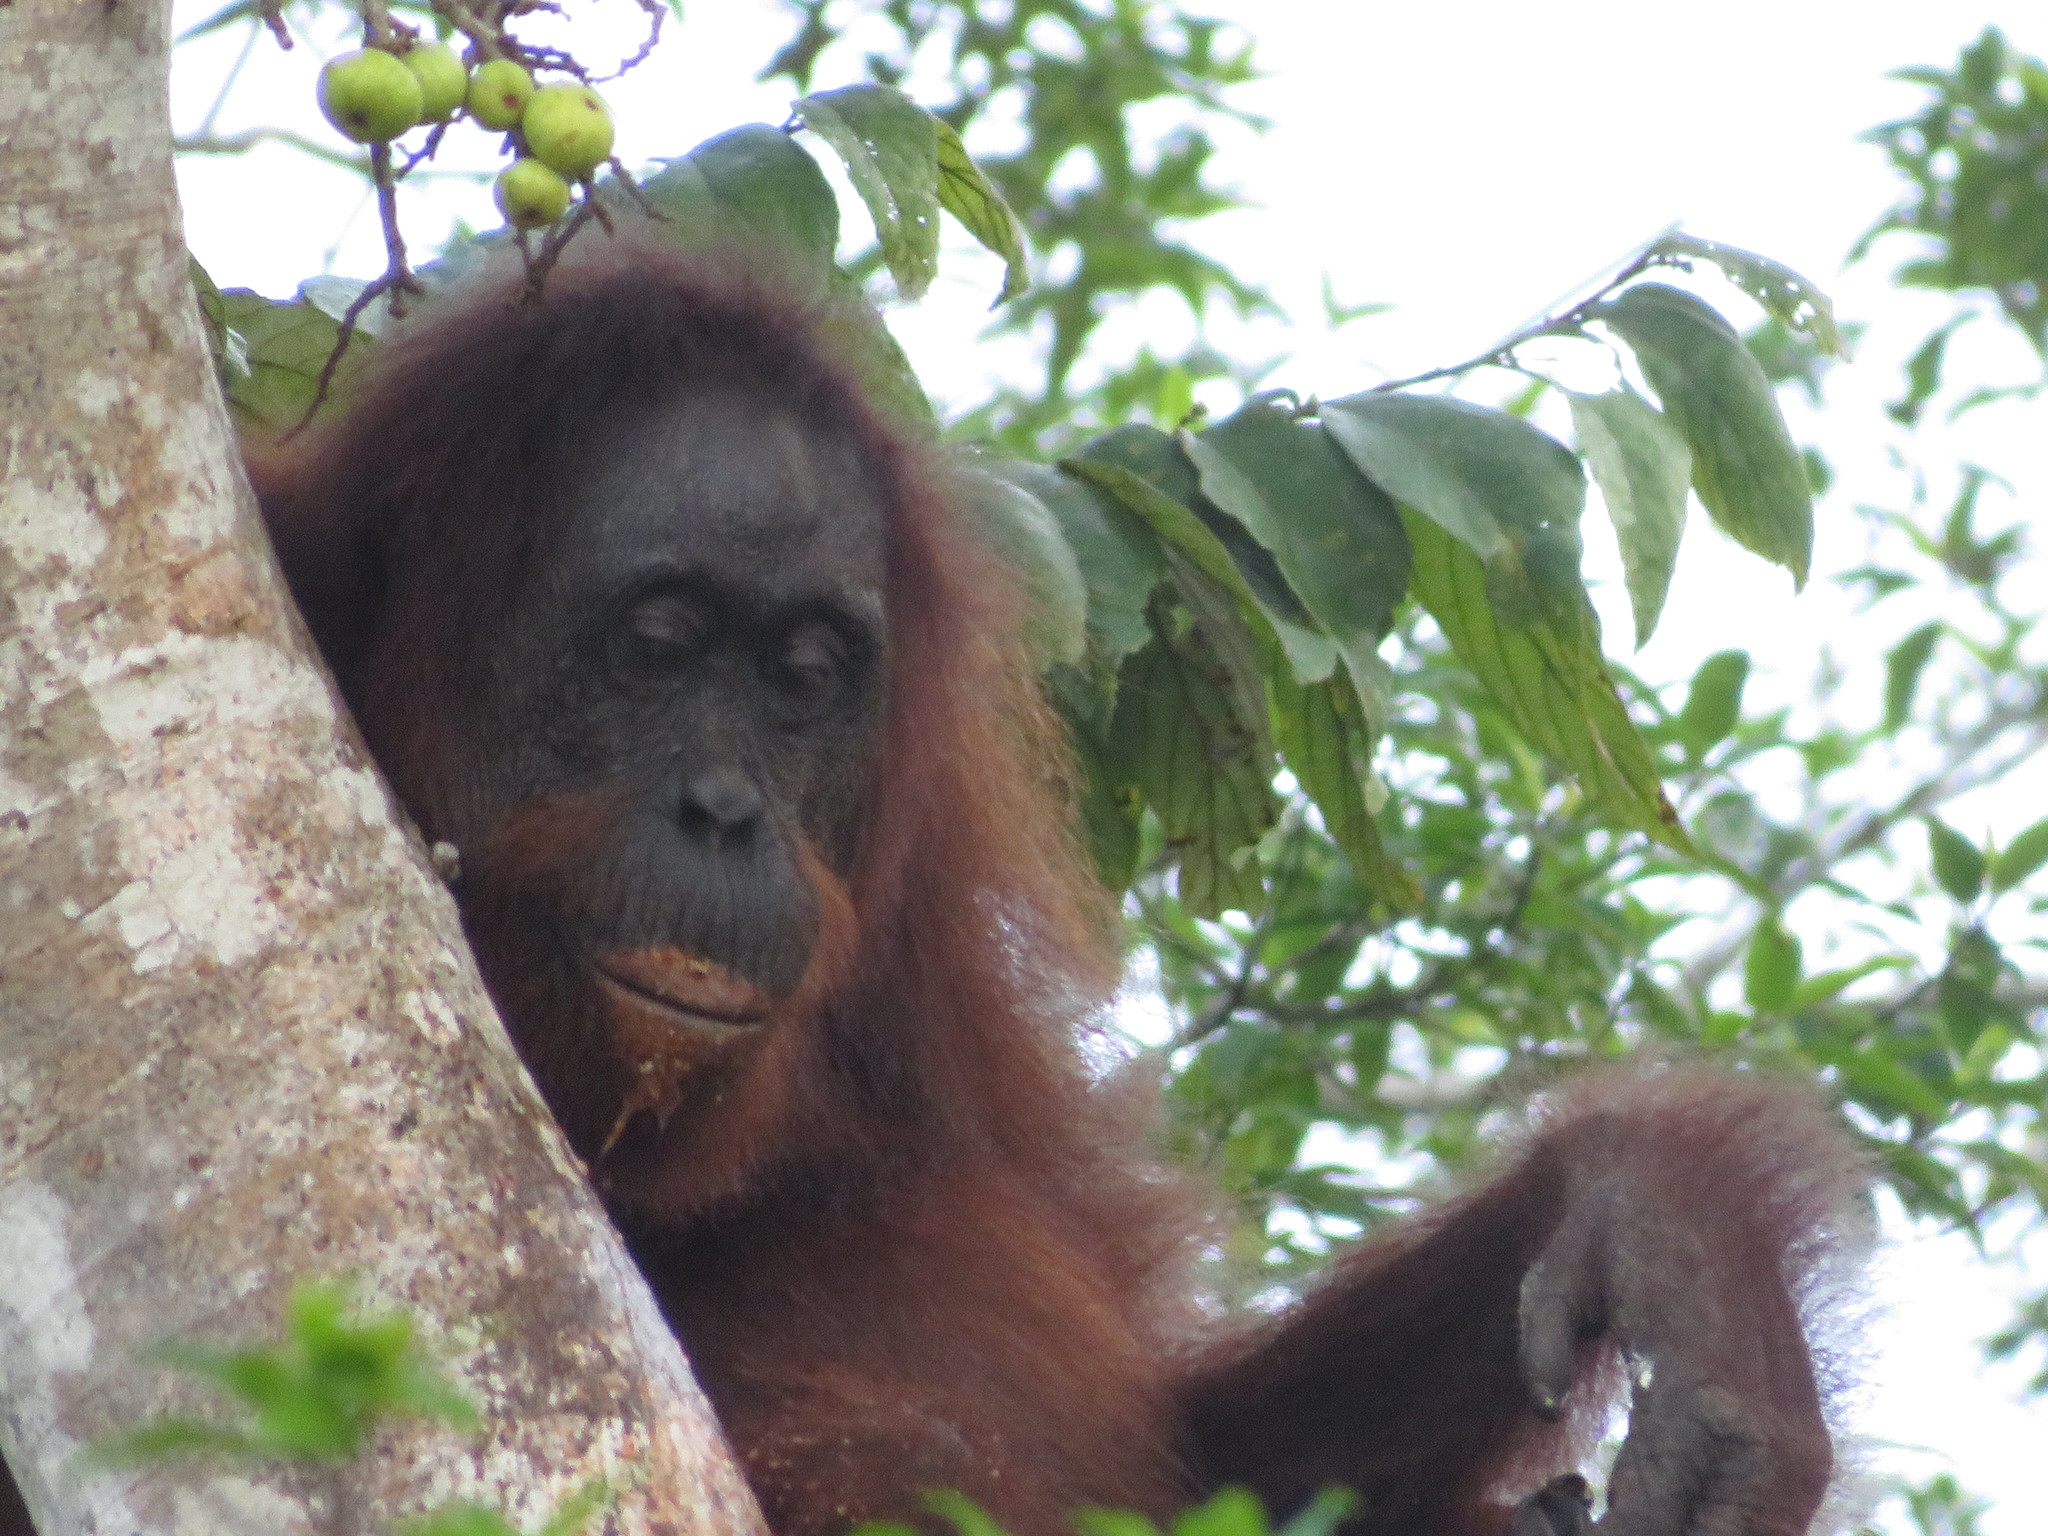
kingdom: Animalia
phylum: Chordata
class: Mammalia
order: Primates
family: Hominidae
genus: Pongo
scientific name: Pongo pygmaeus
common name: Bornean orangutan
